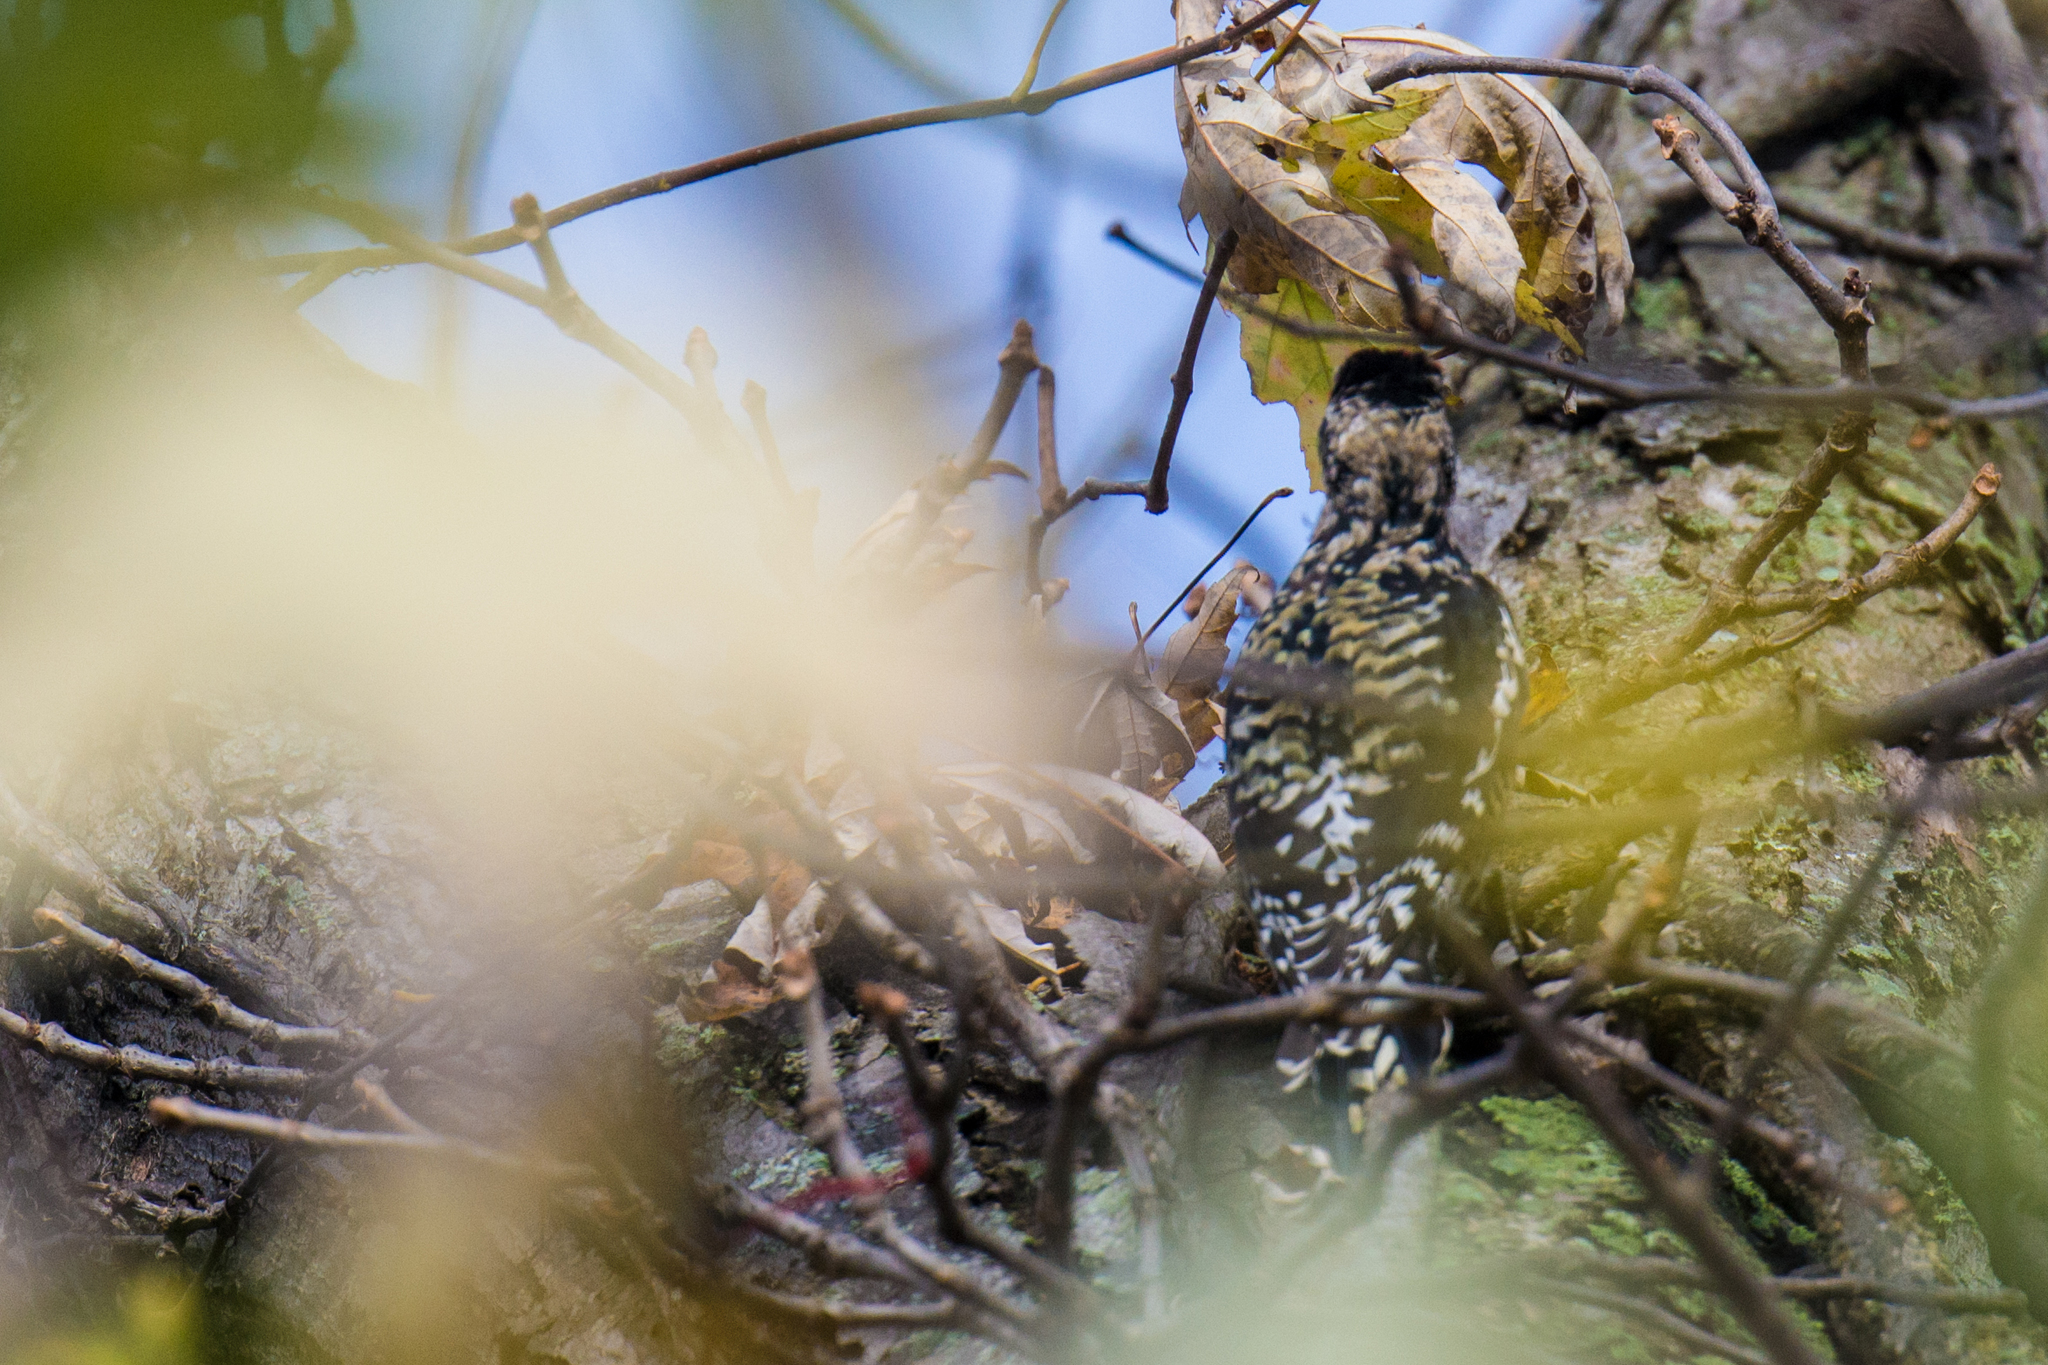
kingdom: Animalia
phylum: Chordata
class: Aves
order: Piciformes
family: Picidae
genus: Sphyrapicus
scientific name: Sphyrapicus varius
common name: Yellow-bellied sapsucker
